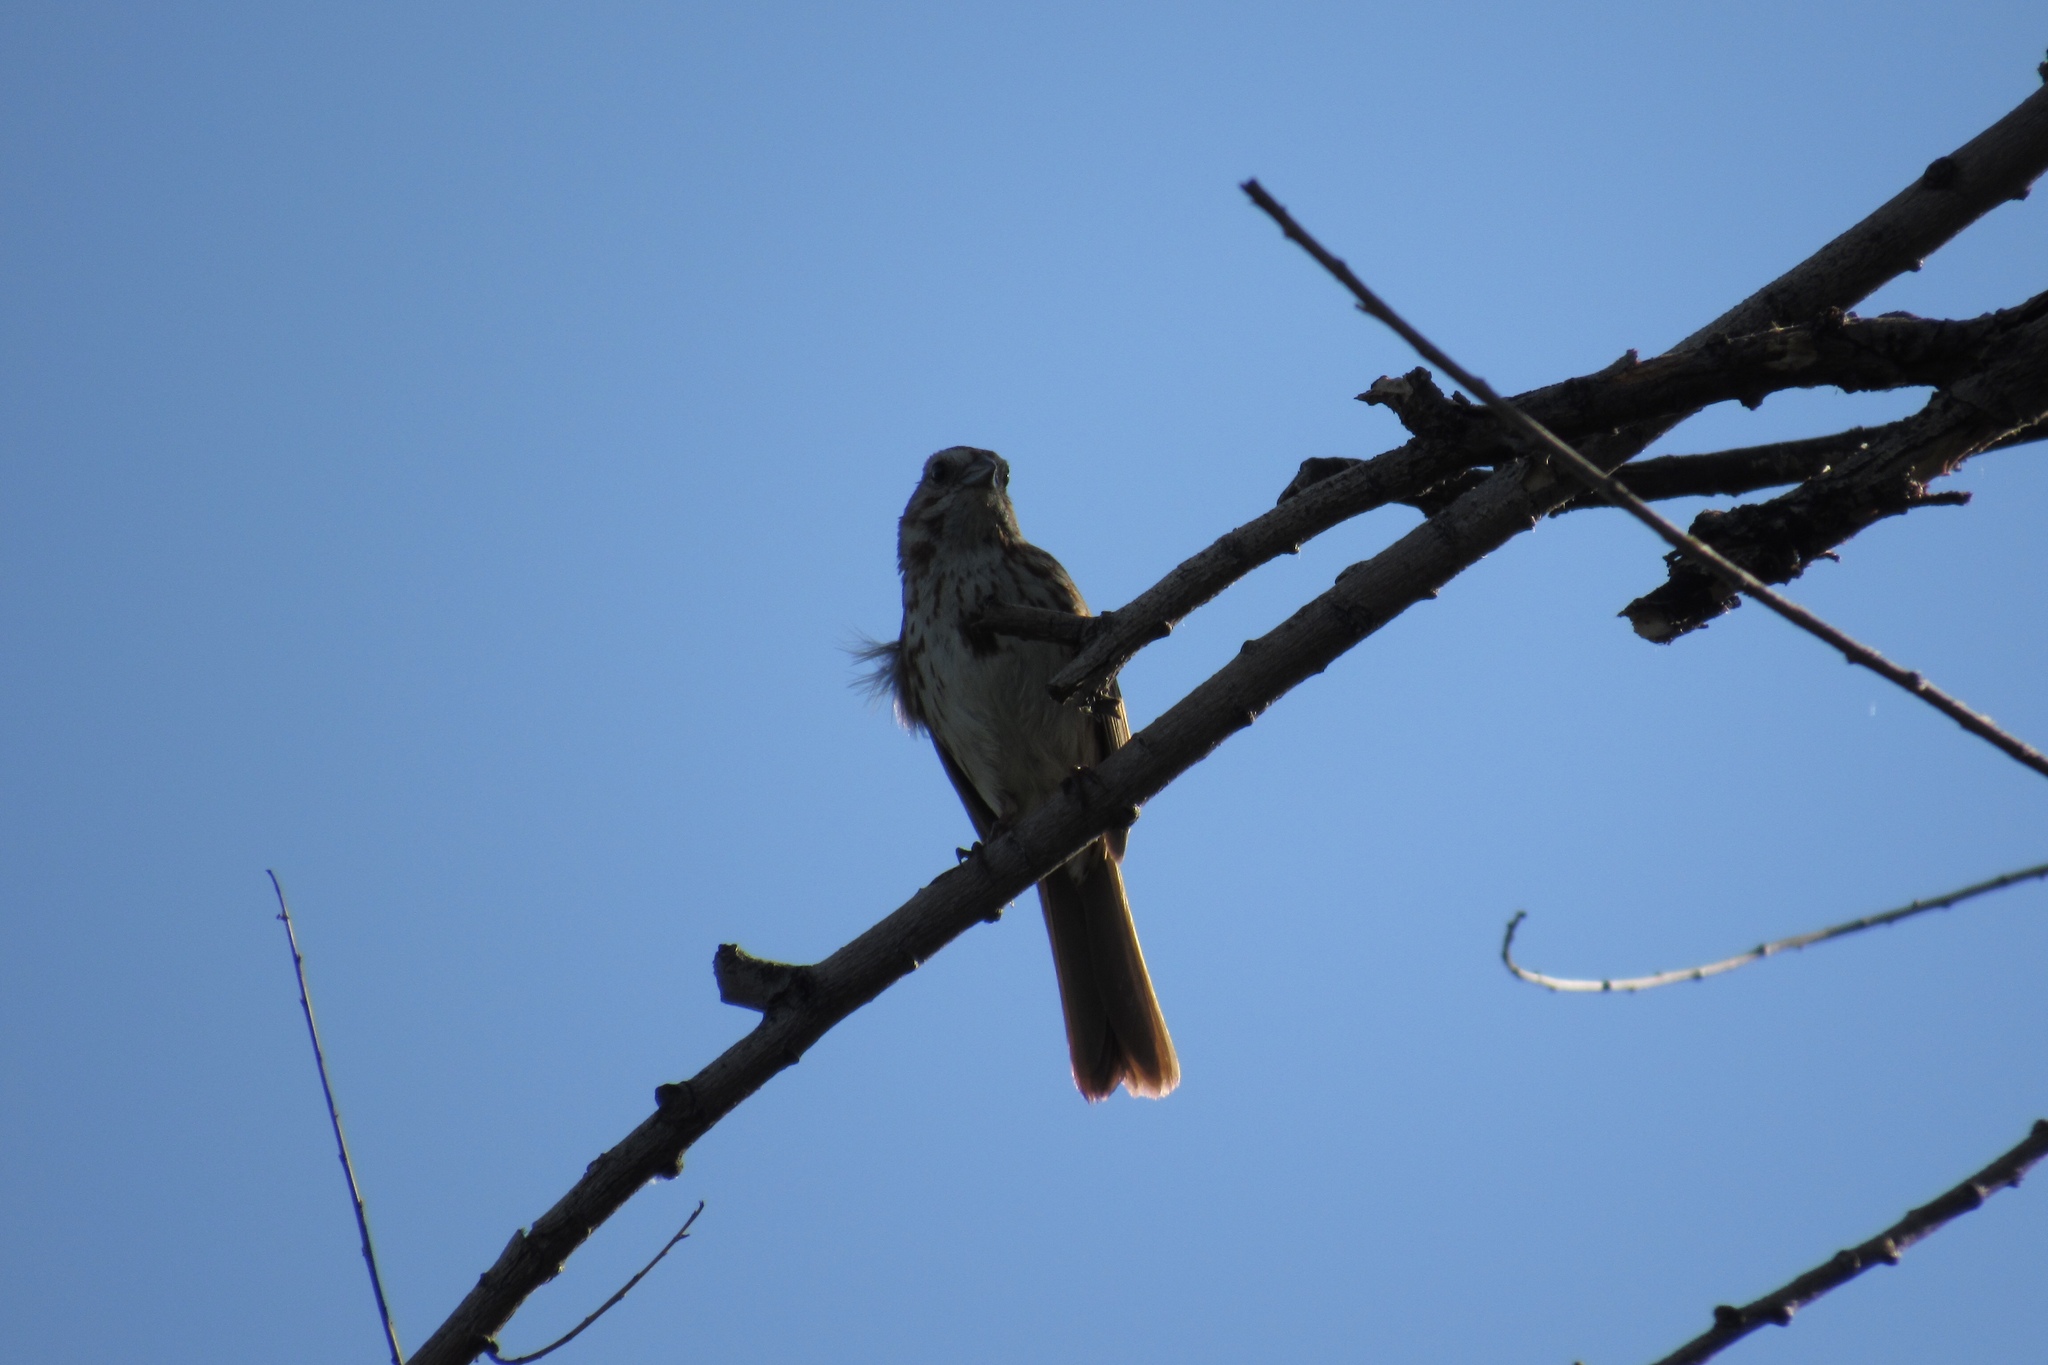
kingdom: Animalia
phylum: Chordata
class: Aves
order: Passeriformes
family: Passerellidae
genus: Melospiza
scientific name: Melospiza melodia
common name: Song sparrow
